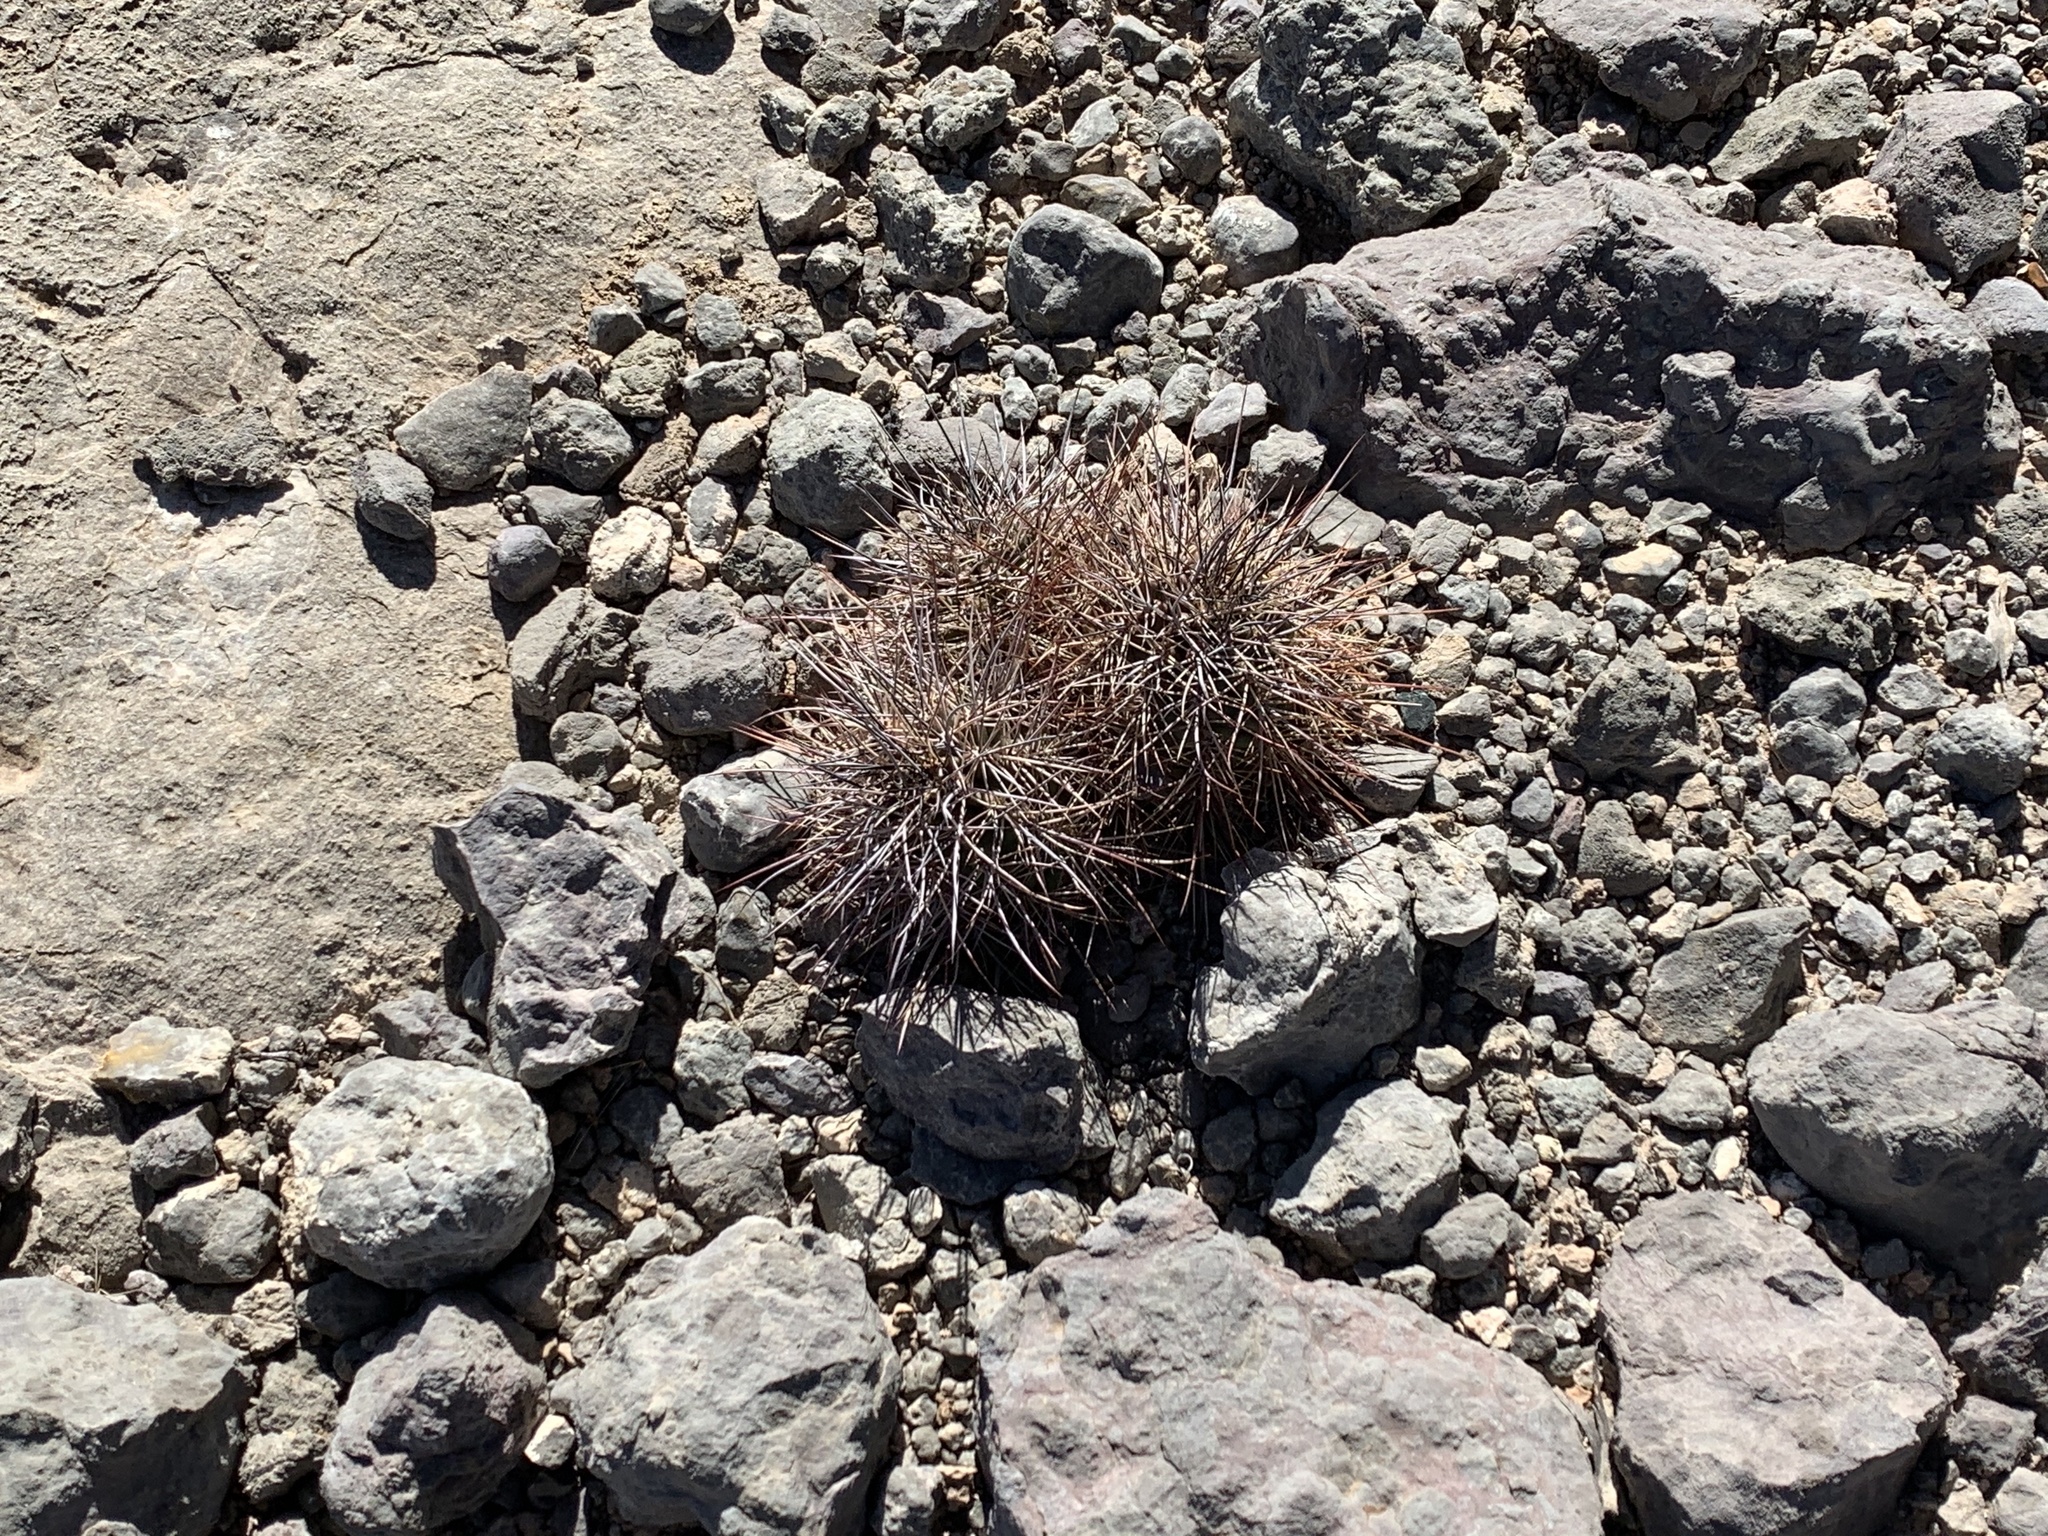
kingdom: Plantae
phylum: Tracheophyta
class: Magnoliopsida
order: Caryophyllales
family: Cactaceae
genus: Echinocereus
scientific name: Echinocereus coccineus
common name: Scarlet hedgehog cactus
